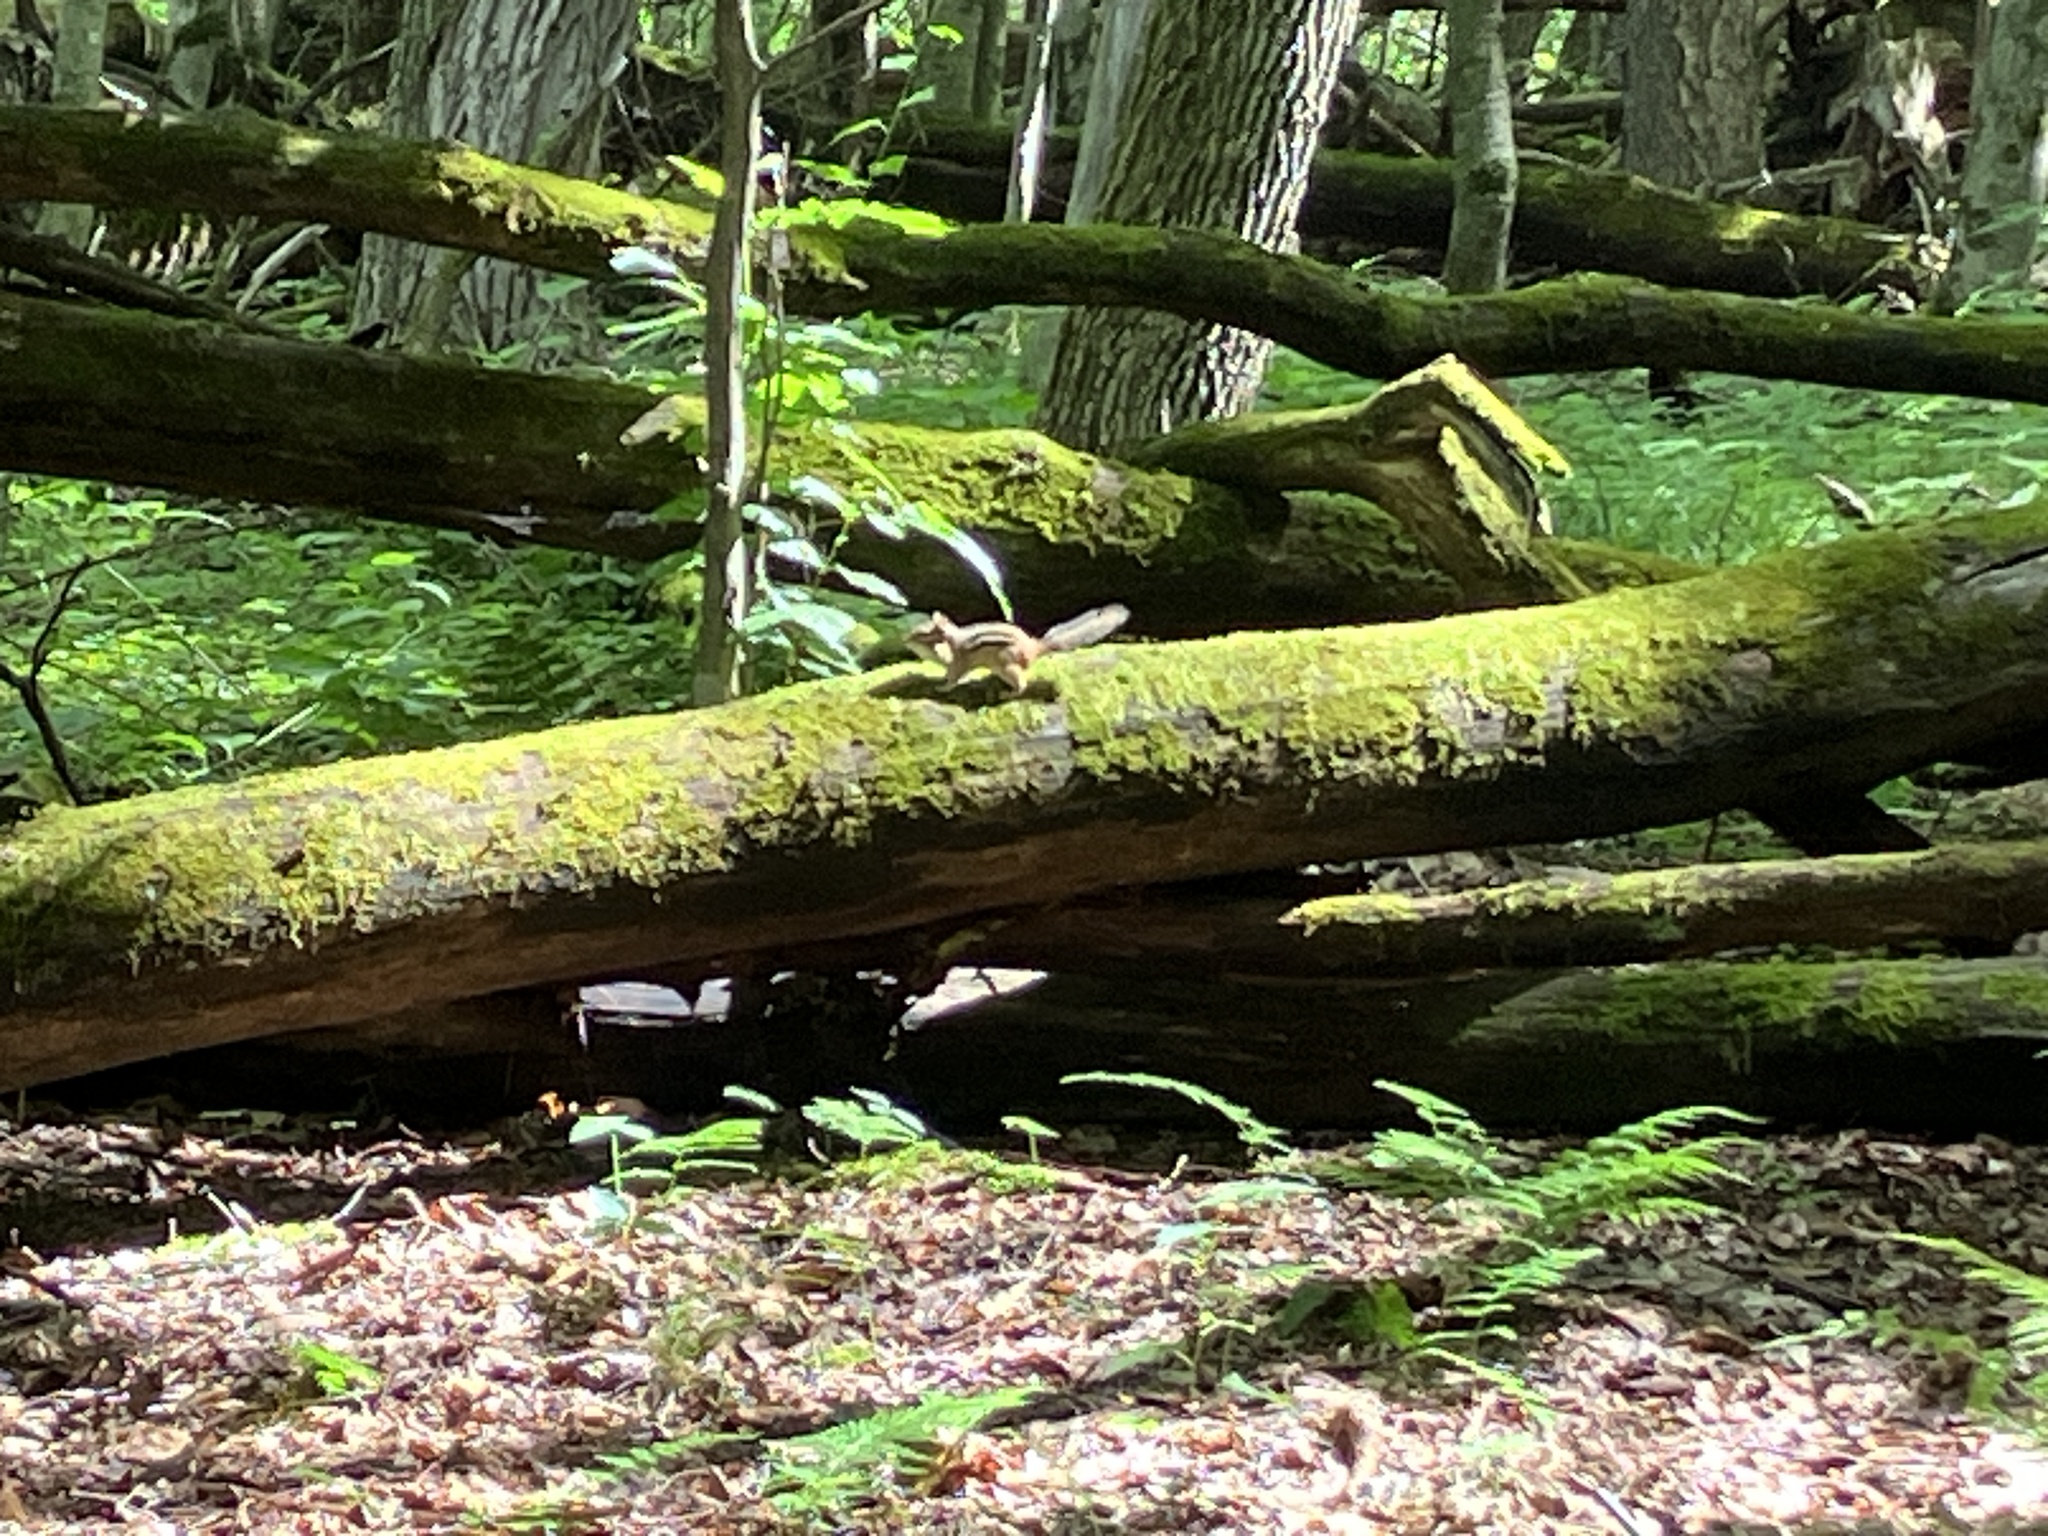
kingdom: Animalia
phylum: Chordata
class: Mammalia
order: Rodentia
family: Sciuridae
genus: Tamias
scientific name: Tamias striatus
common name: Eastern chipmunk
